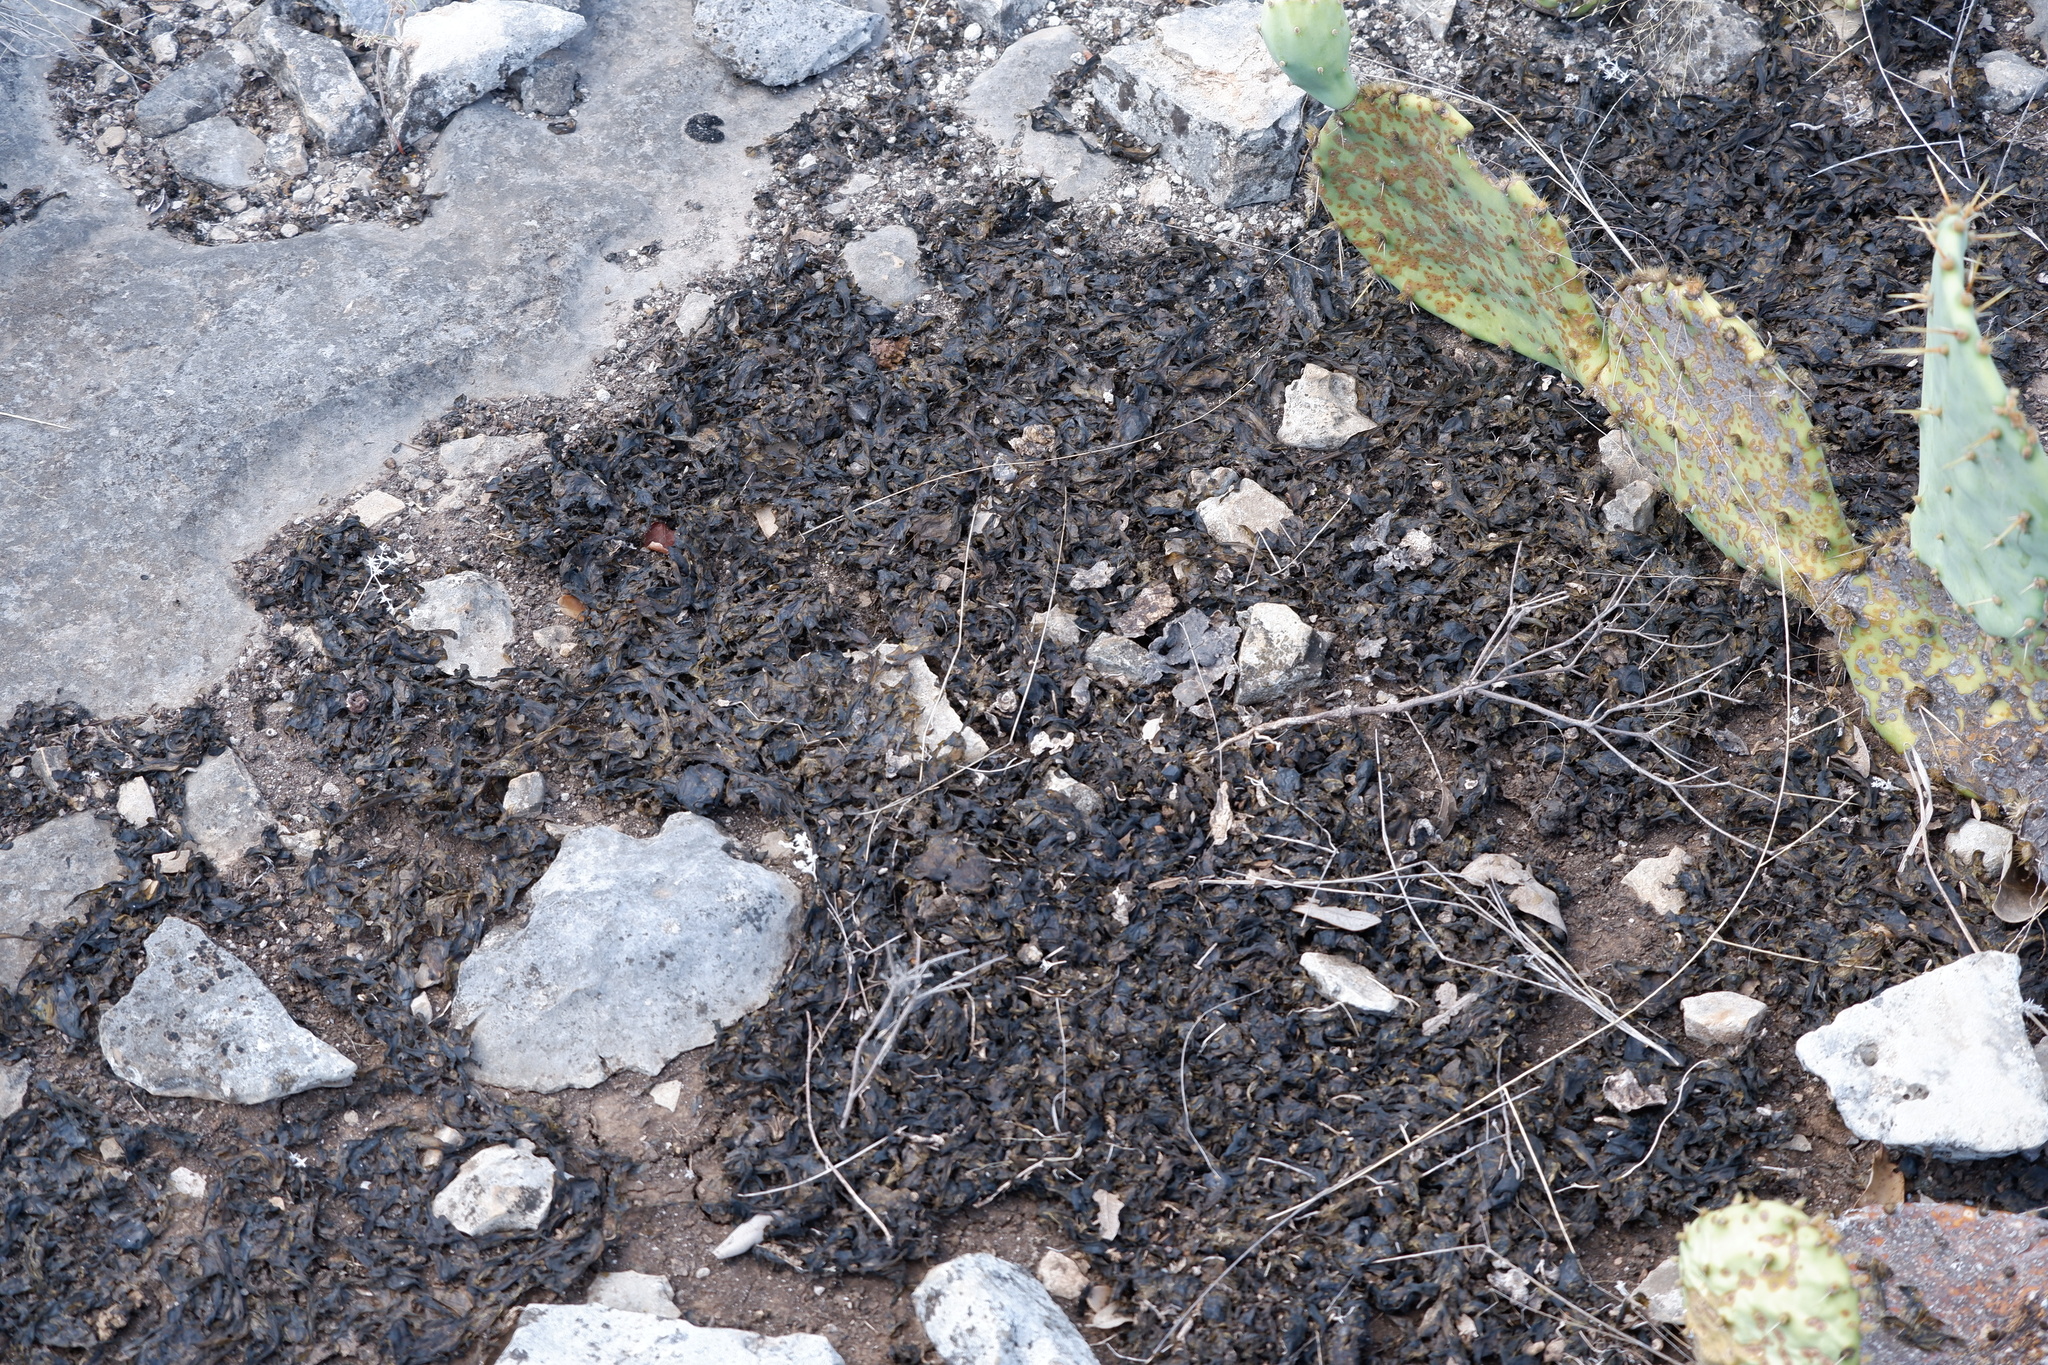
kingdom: Bacteria
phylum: Cyanobacteria
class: Cyanobacteriia
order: Cyanobacteriales
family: Nostocaceae
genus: Nostoc
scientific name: Nostoc commune
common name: Star jelly
